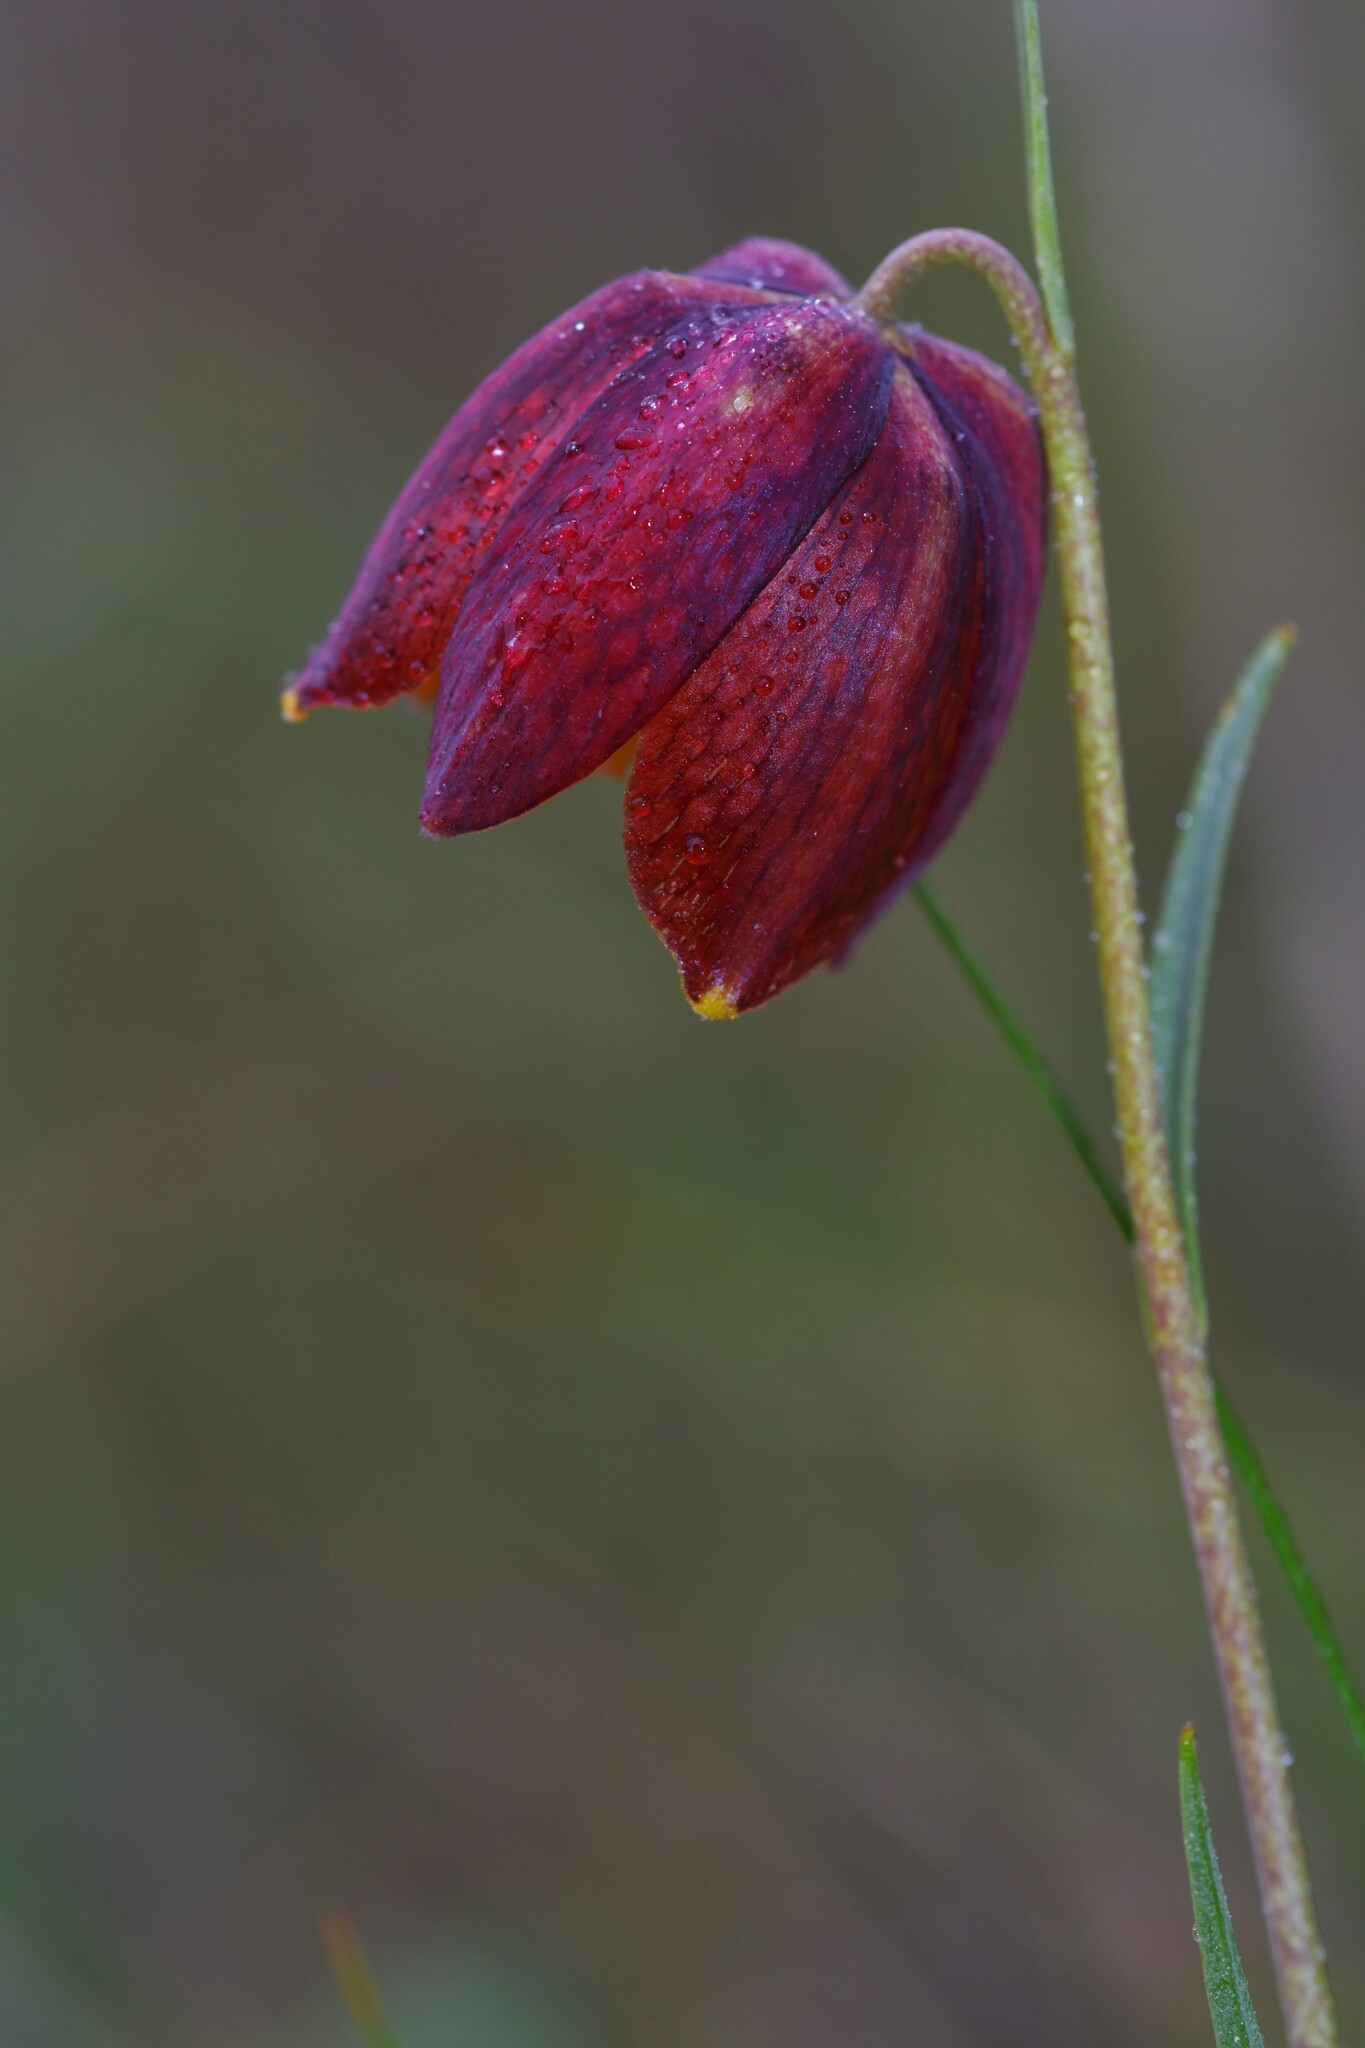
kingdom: Plantae
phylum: Tracheophyta
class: Liliopsida
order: Liliales
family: Liliaceae
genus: Fritillaria
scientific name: Fritillaria lusitanica
